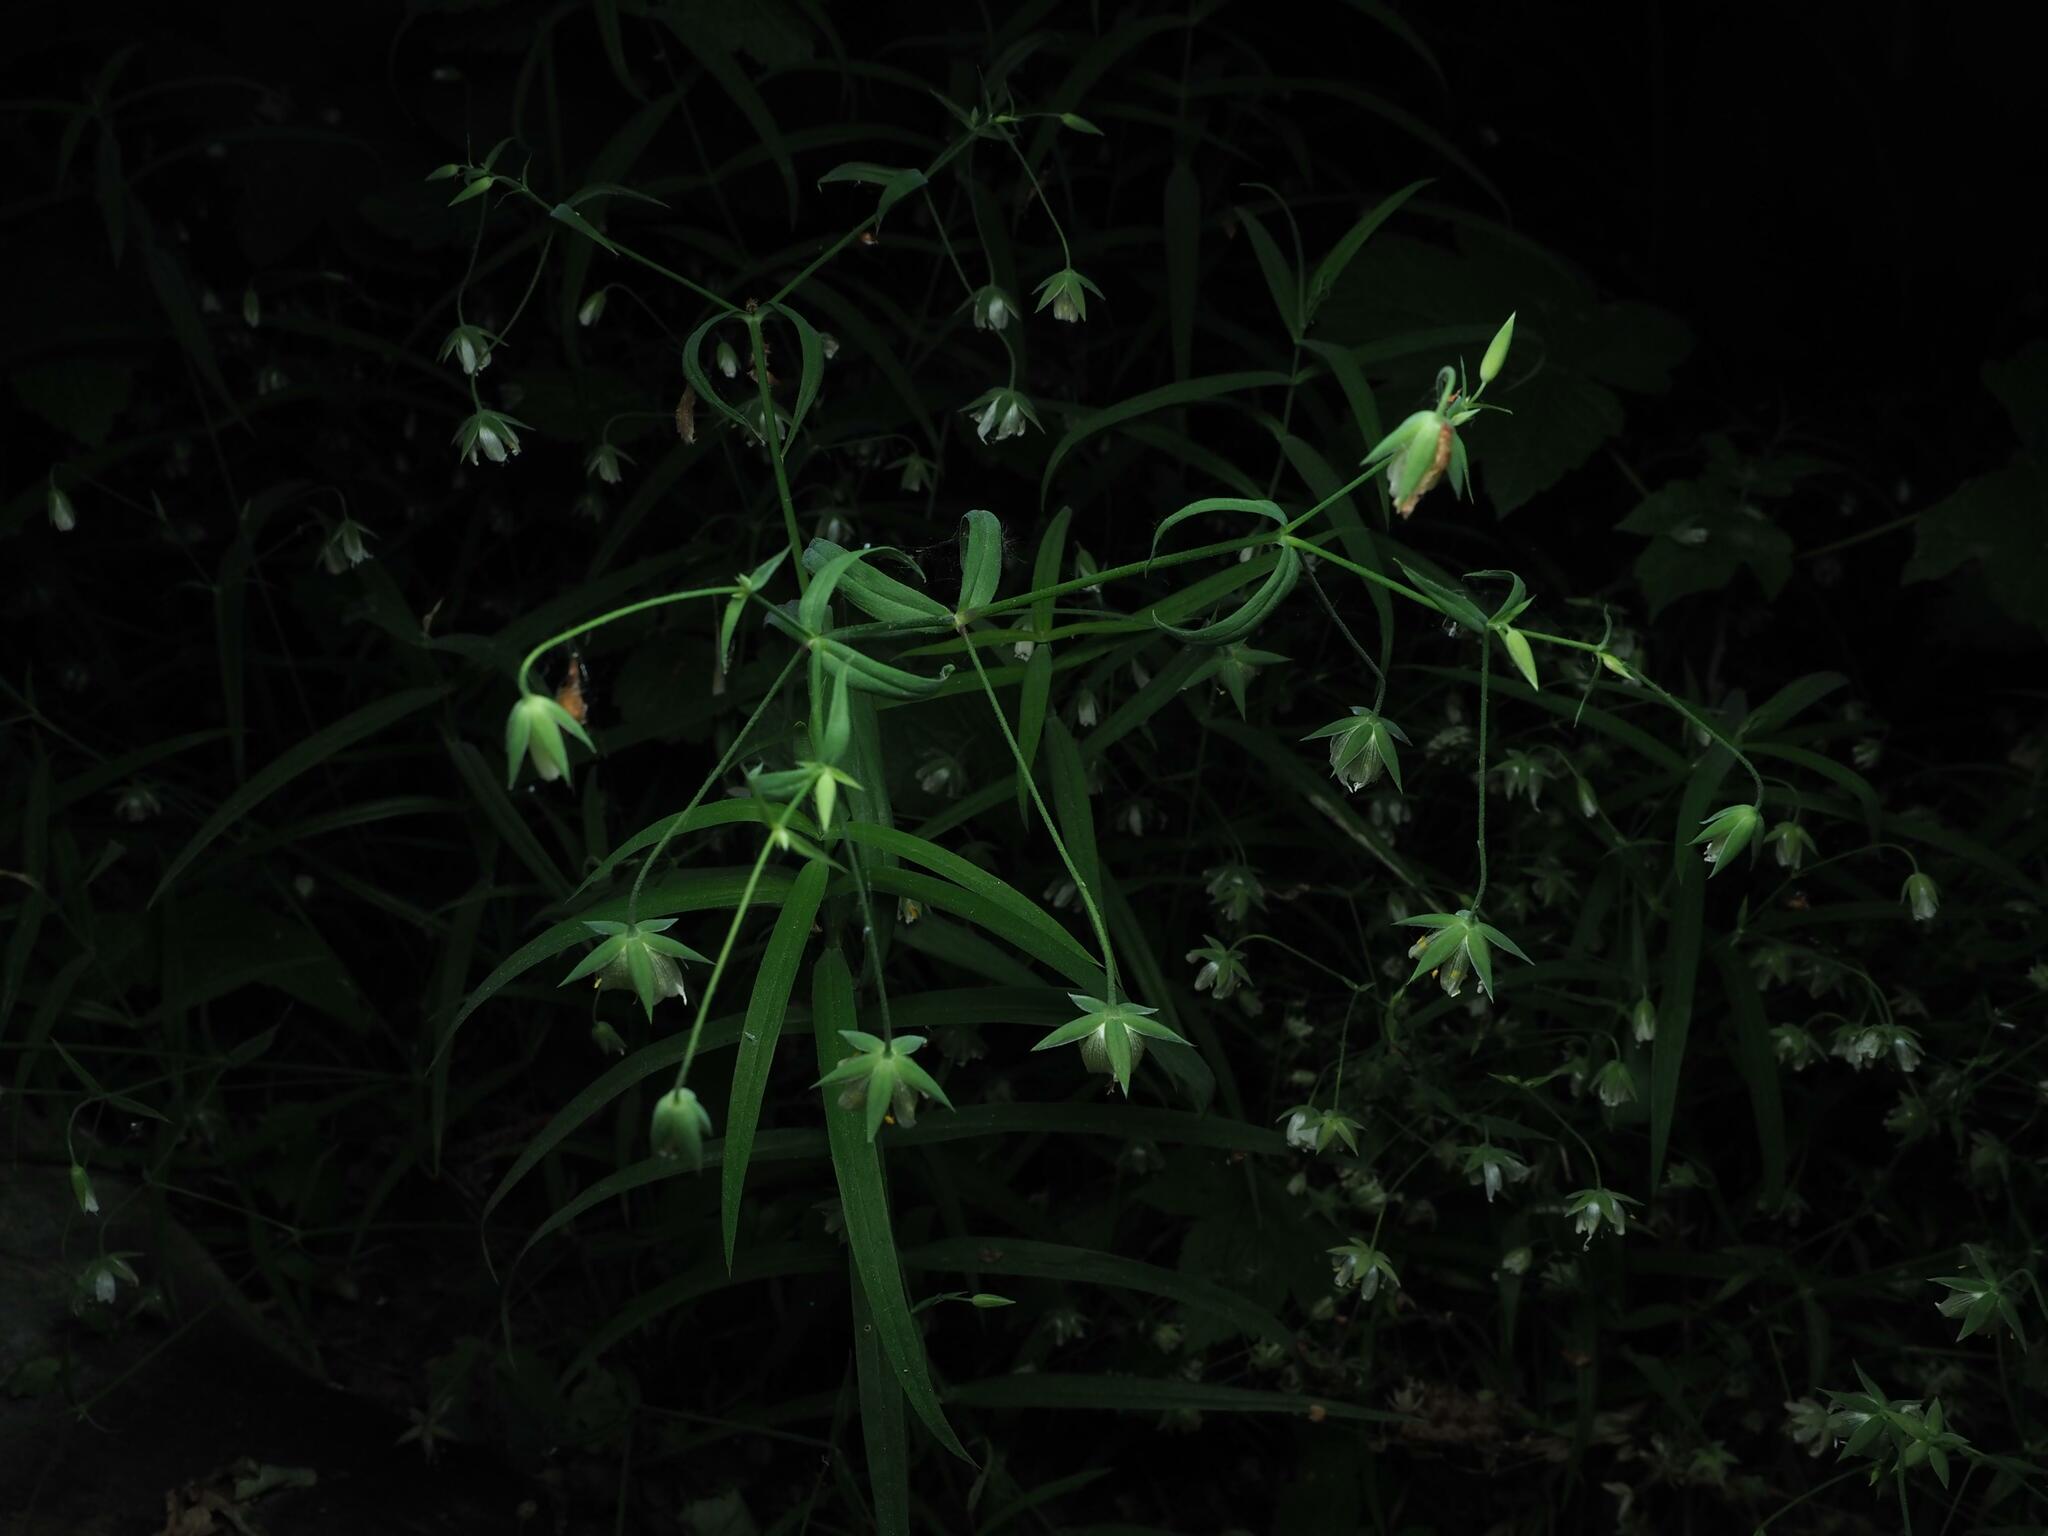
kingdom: Plantae
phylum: Tracheophyta
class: Magnoliopsida
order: Caryophyllales
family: Caryophyllaceae
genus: Rabelera
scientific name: Rabelera holostea
